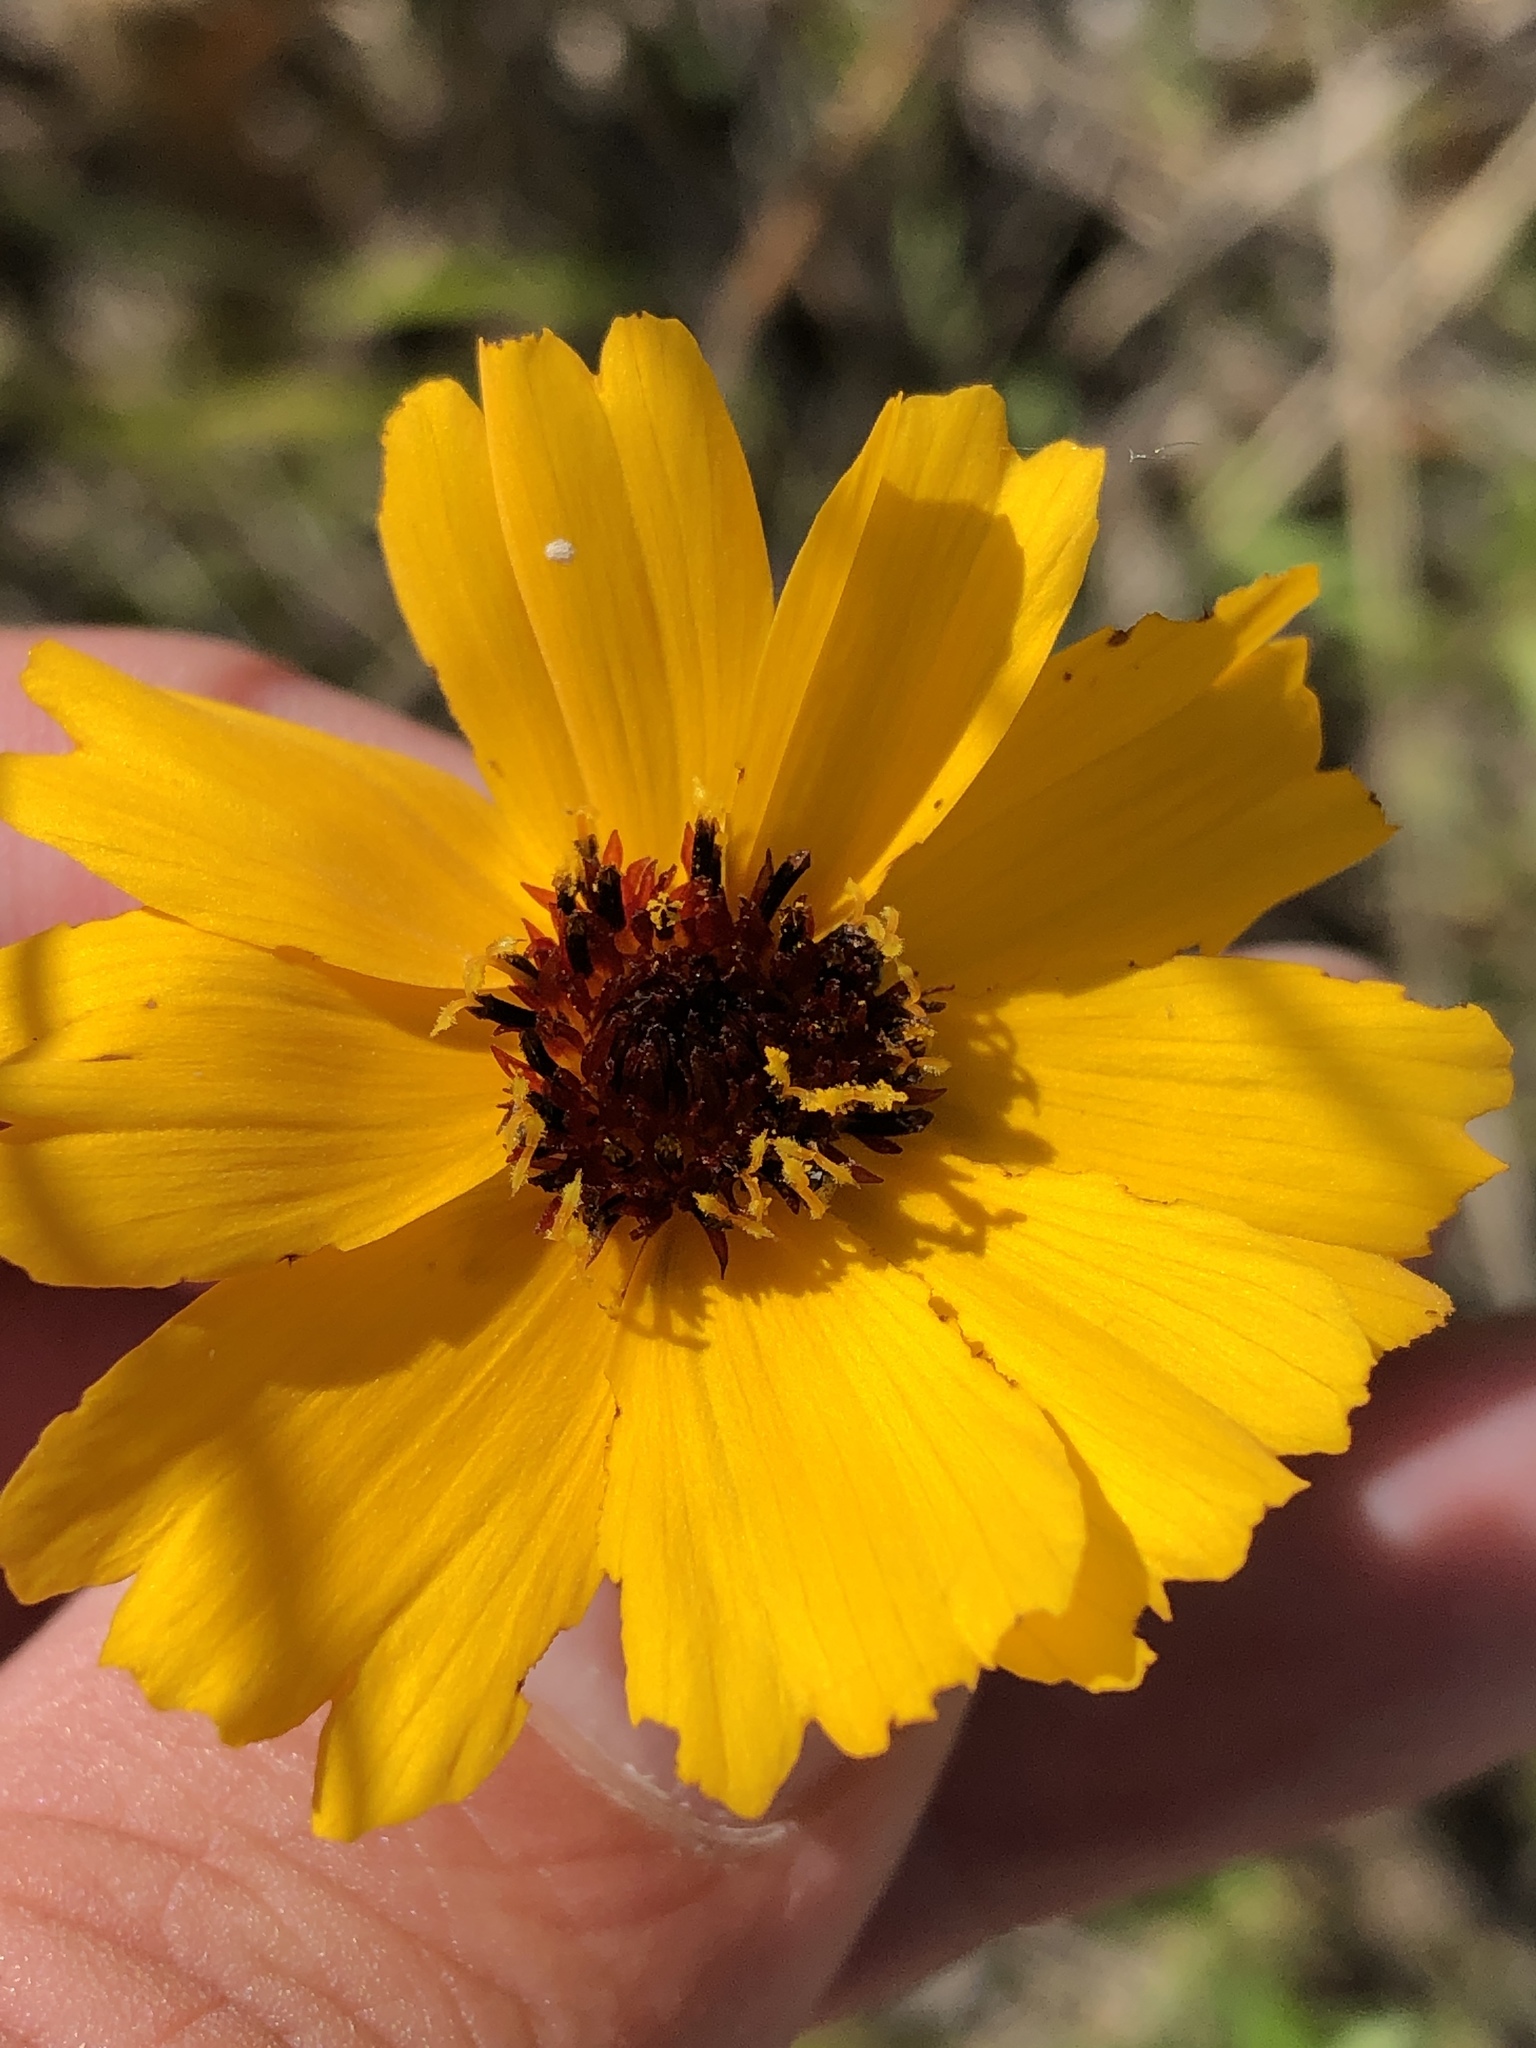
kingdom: Plantae
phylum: Tracheophyta
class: Magnoliopsida
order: Asterales
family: Asteraceae
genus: Thelesperma
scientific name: Thelesperma filifolium
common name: Stiff greenthread
